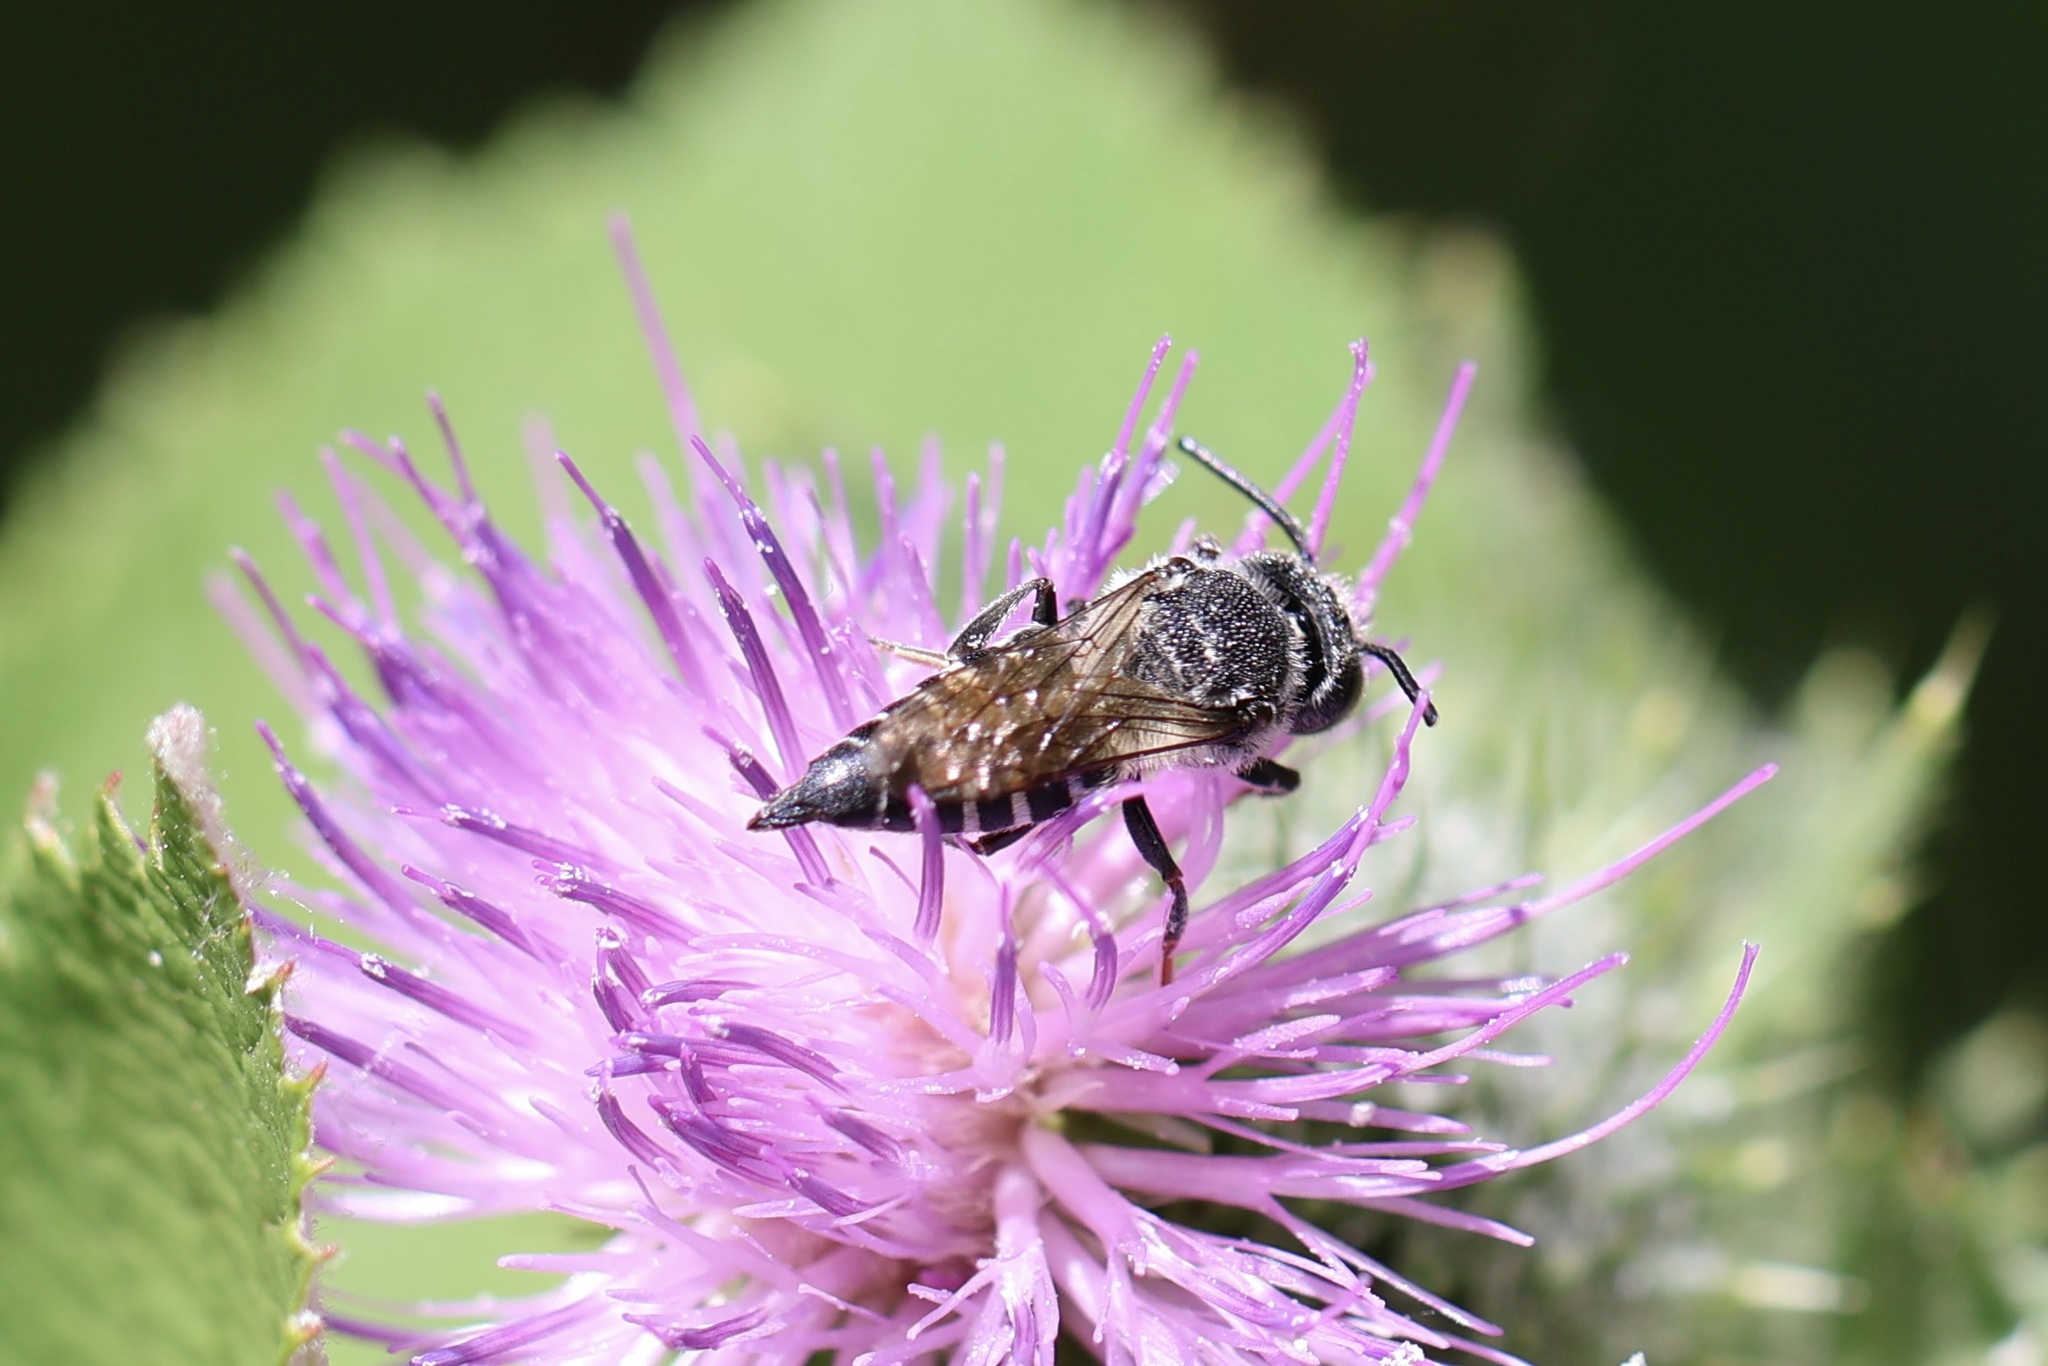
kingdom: Animalia
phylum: Arthropoda
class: Insecta
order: Hymenoptera
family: Megachilidae
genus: Coelioxys
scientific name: Coelioxys rufitarsis
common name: Red-footed sharptail
